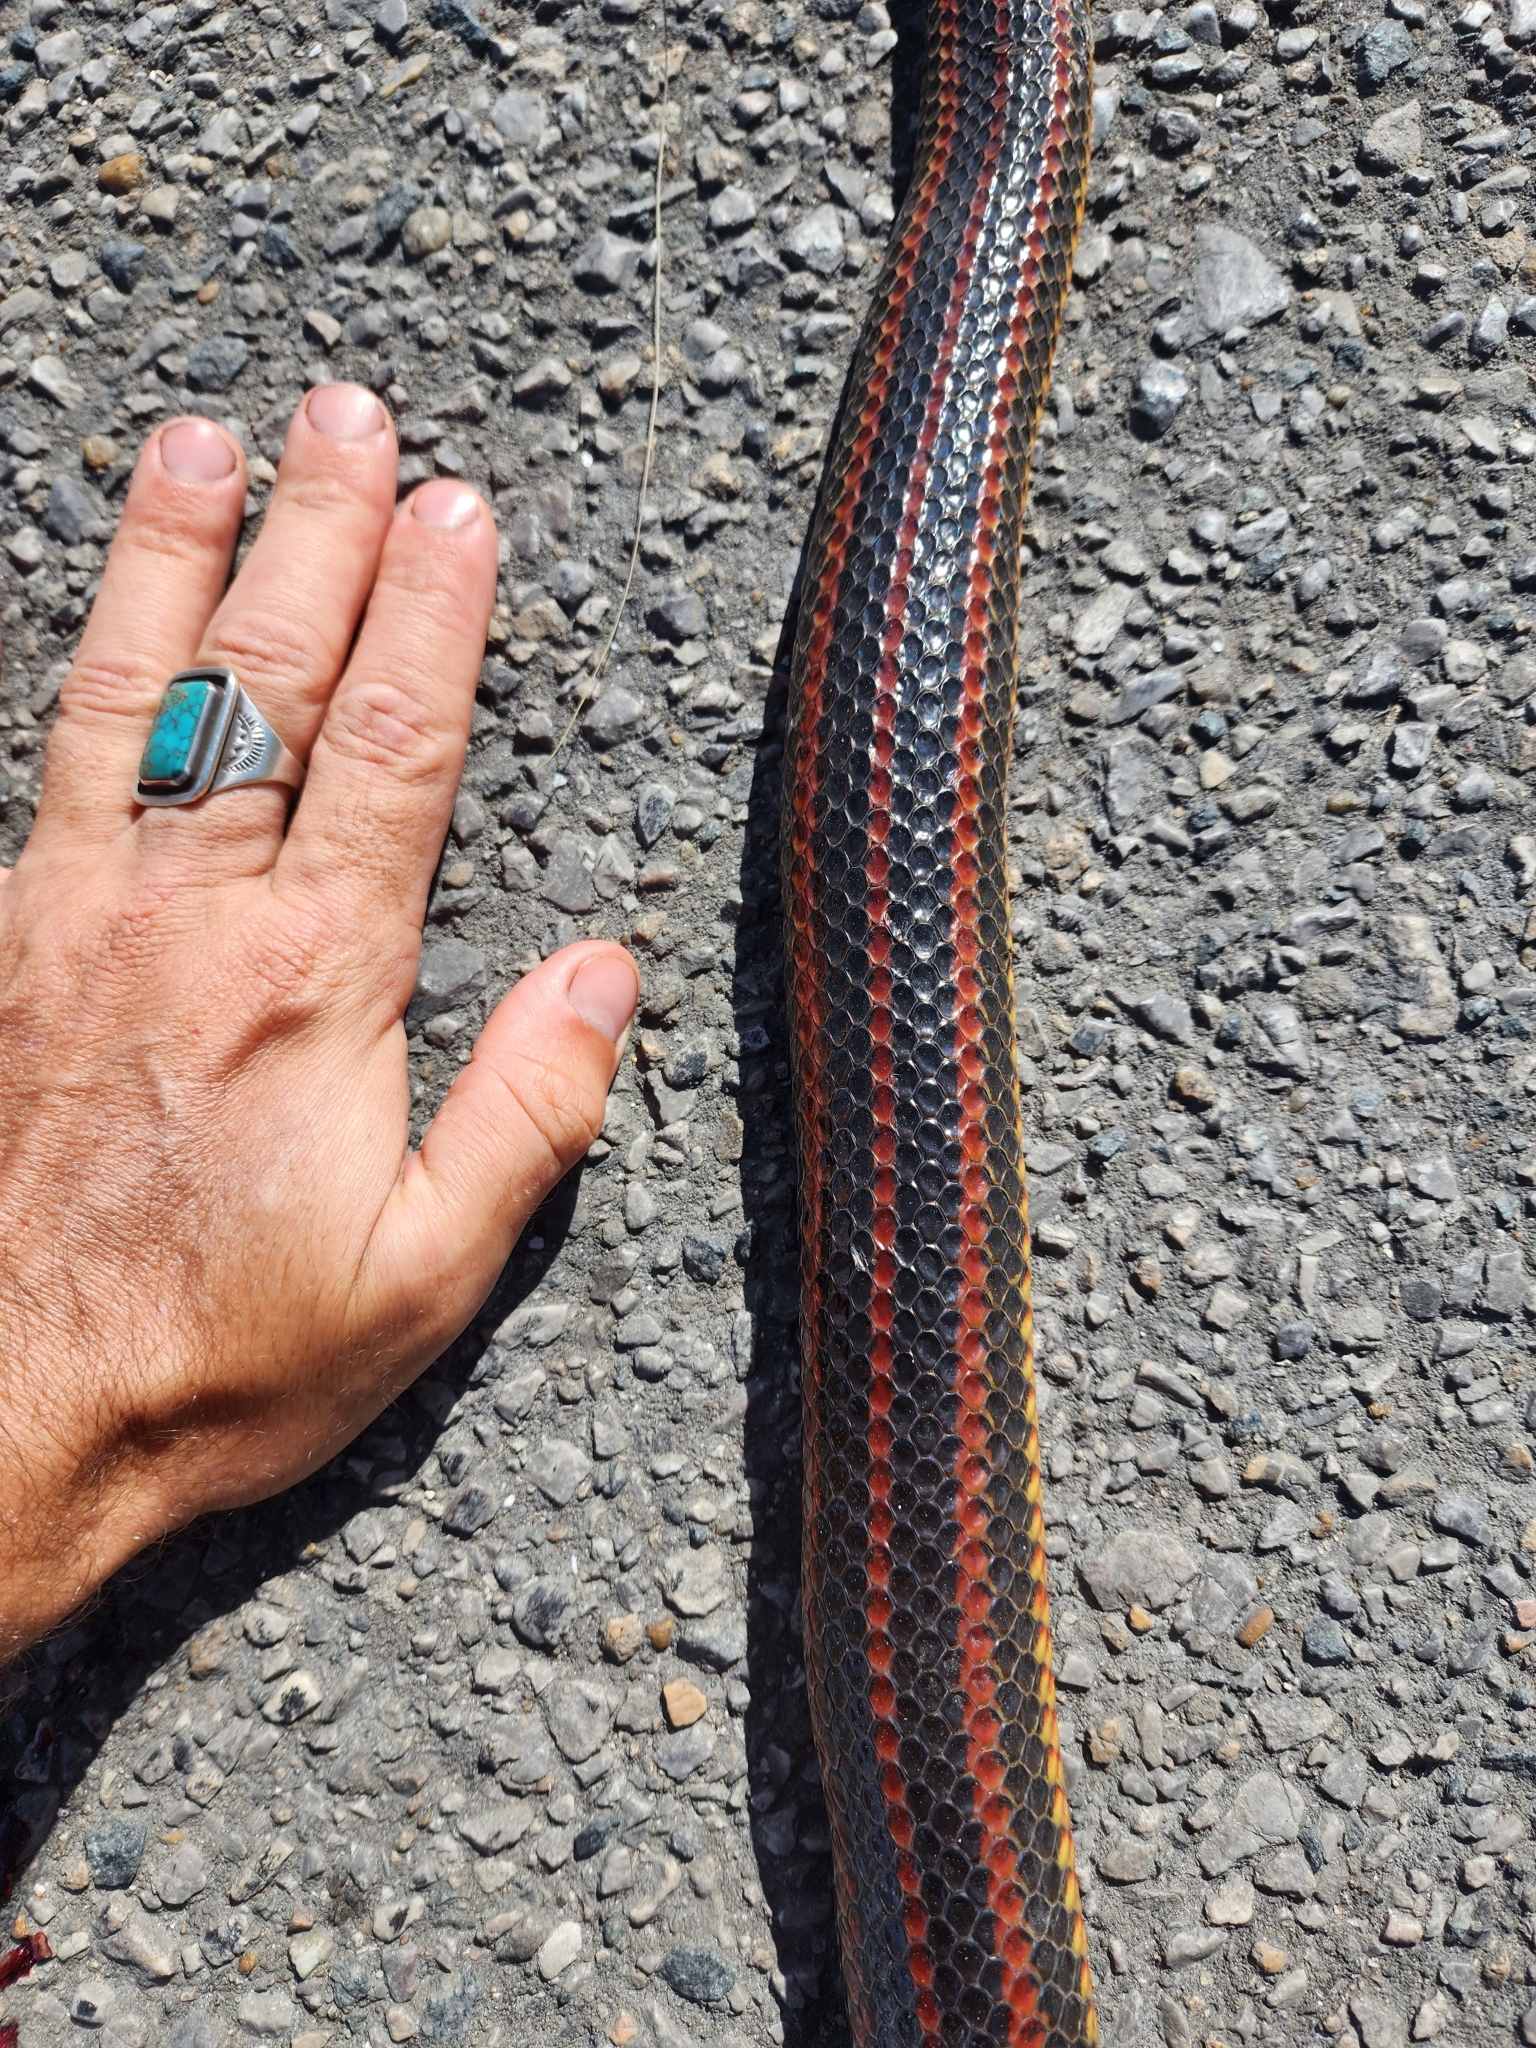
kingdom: Animalia
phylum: Chordata
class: Squamata
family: Colubridae
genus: Farancia
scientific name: Farancia erytrogramma
